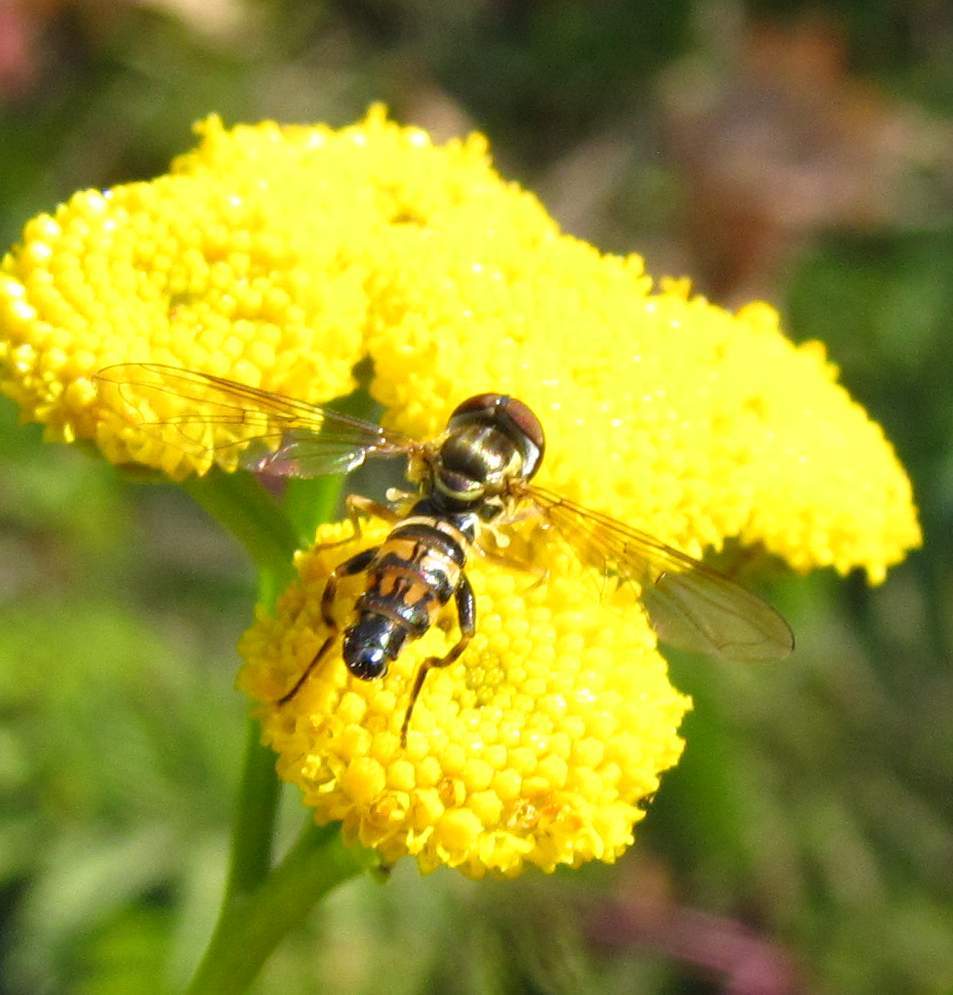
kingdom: Animalia
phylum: Arthropoda
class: Insecta
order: Diptera
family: Syrphidae
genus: Toxomerus
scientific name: Toxomerus geminatus
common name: Eastern calligrapher
